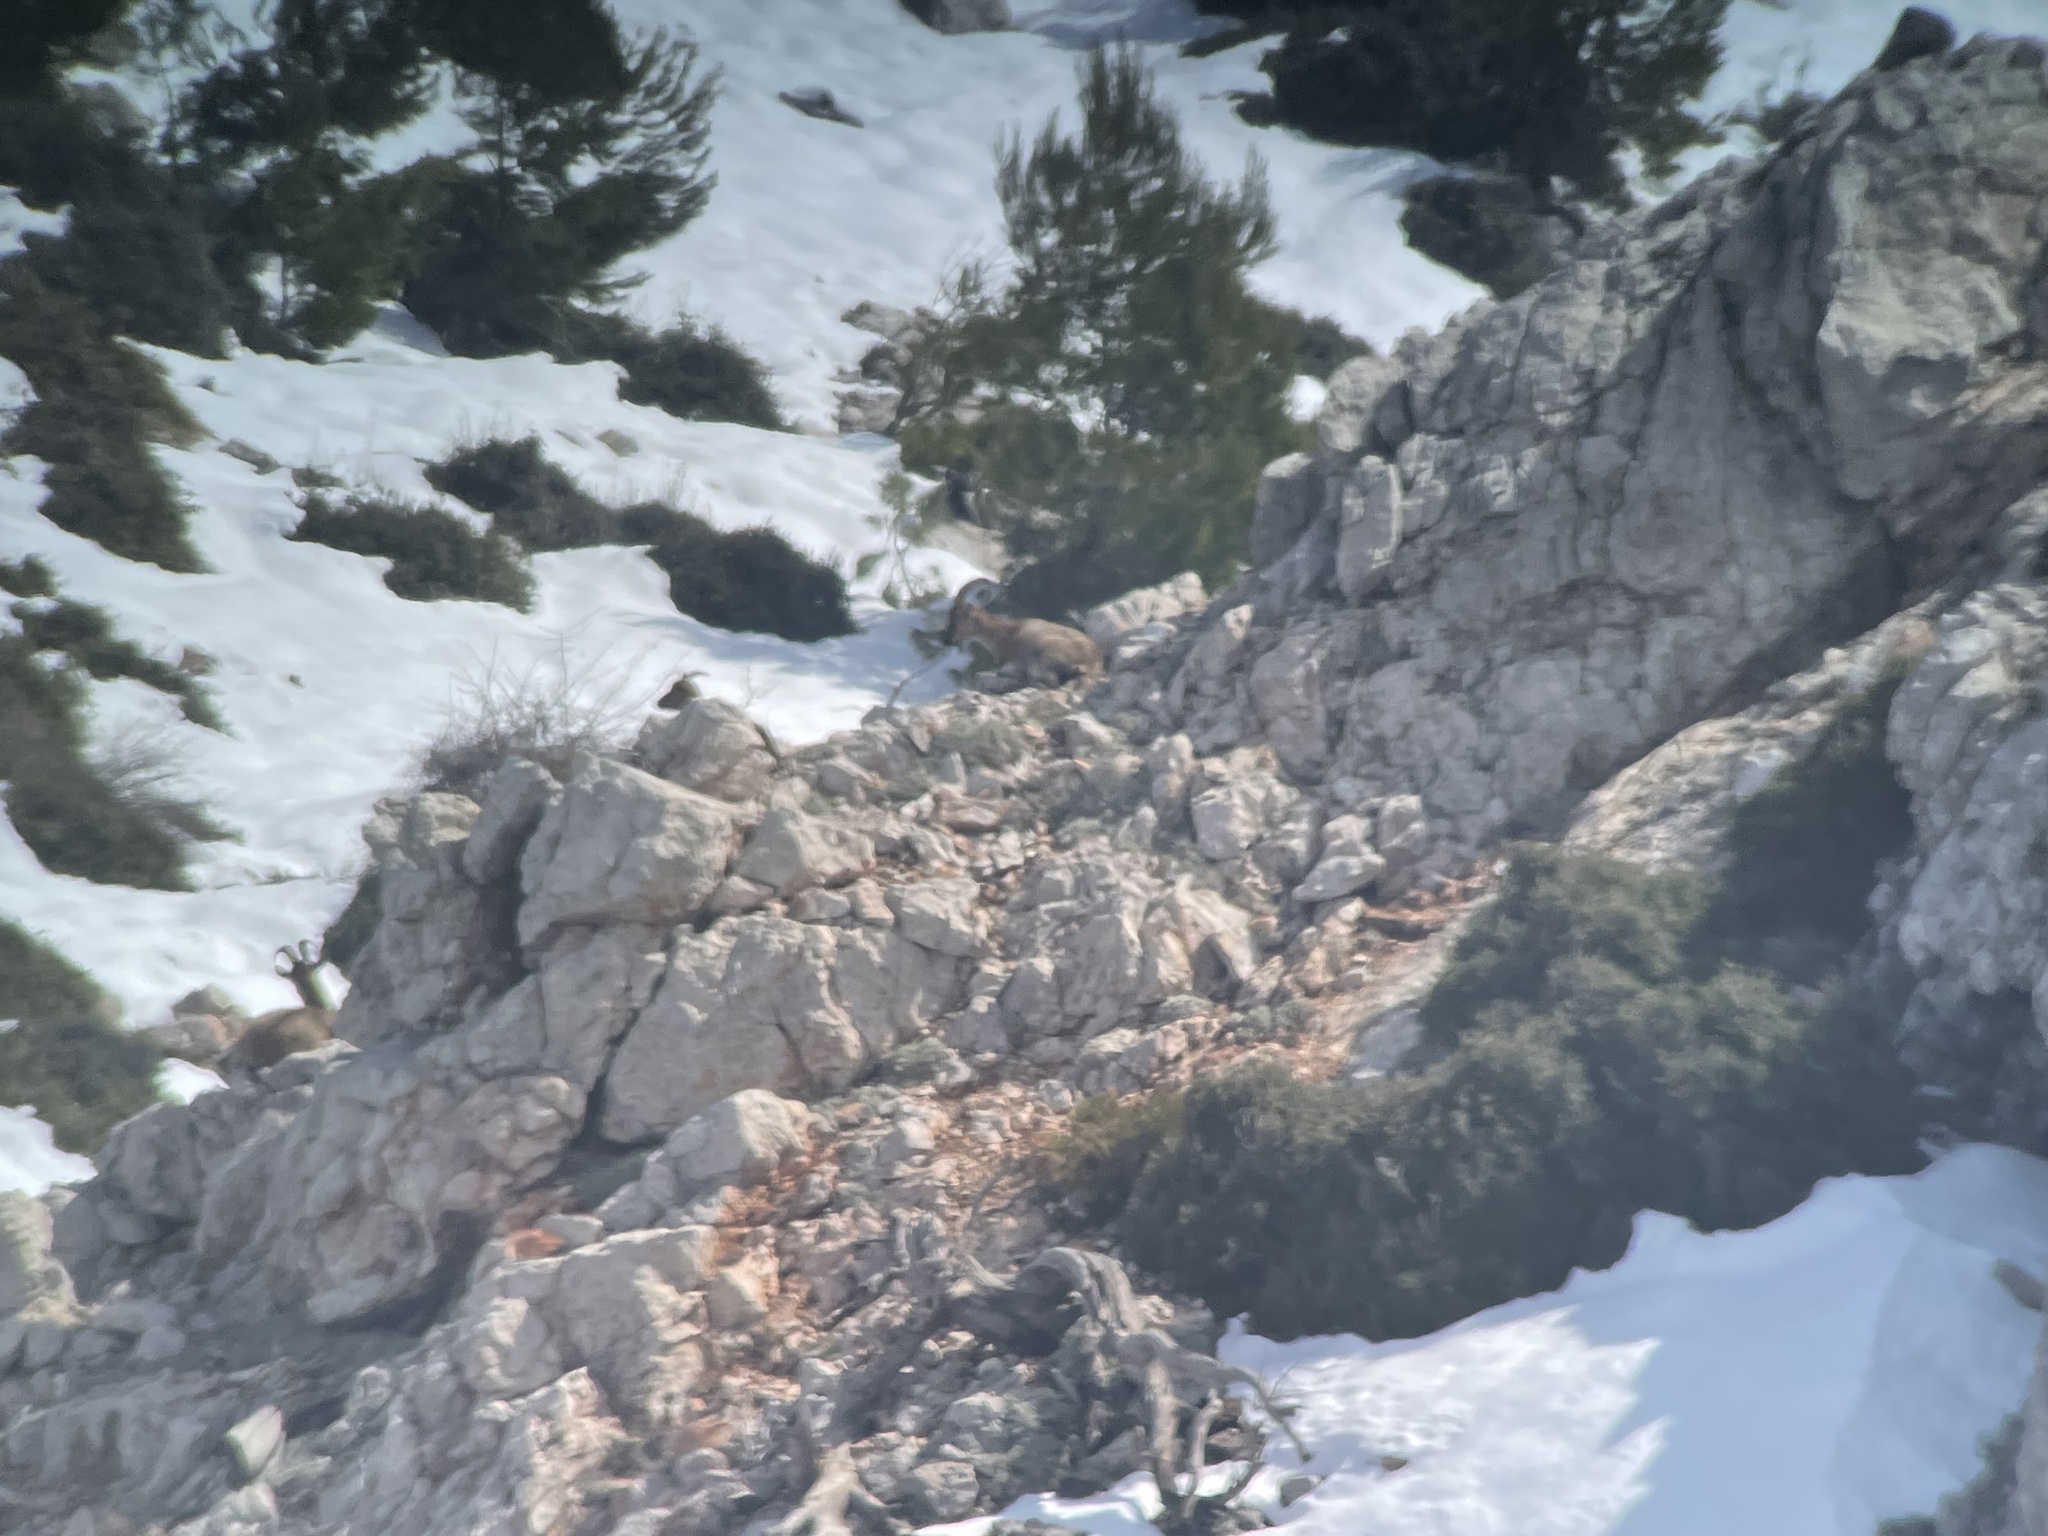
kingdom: Animalia
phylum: Chordata
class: Mammalia
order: Artiodactyla
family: Bovidae
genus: Capra
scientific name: Capra hircus
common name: Domestic goat
